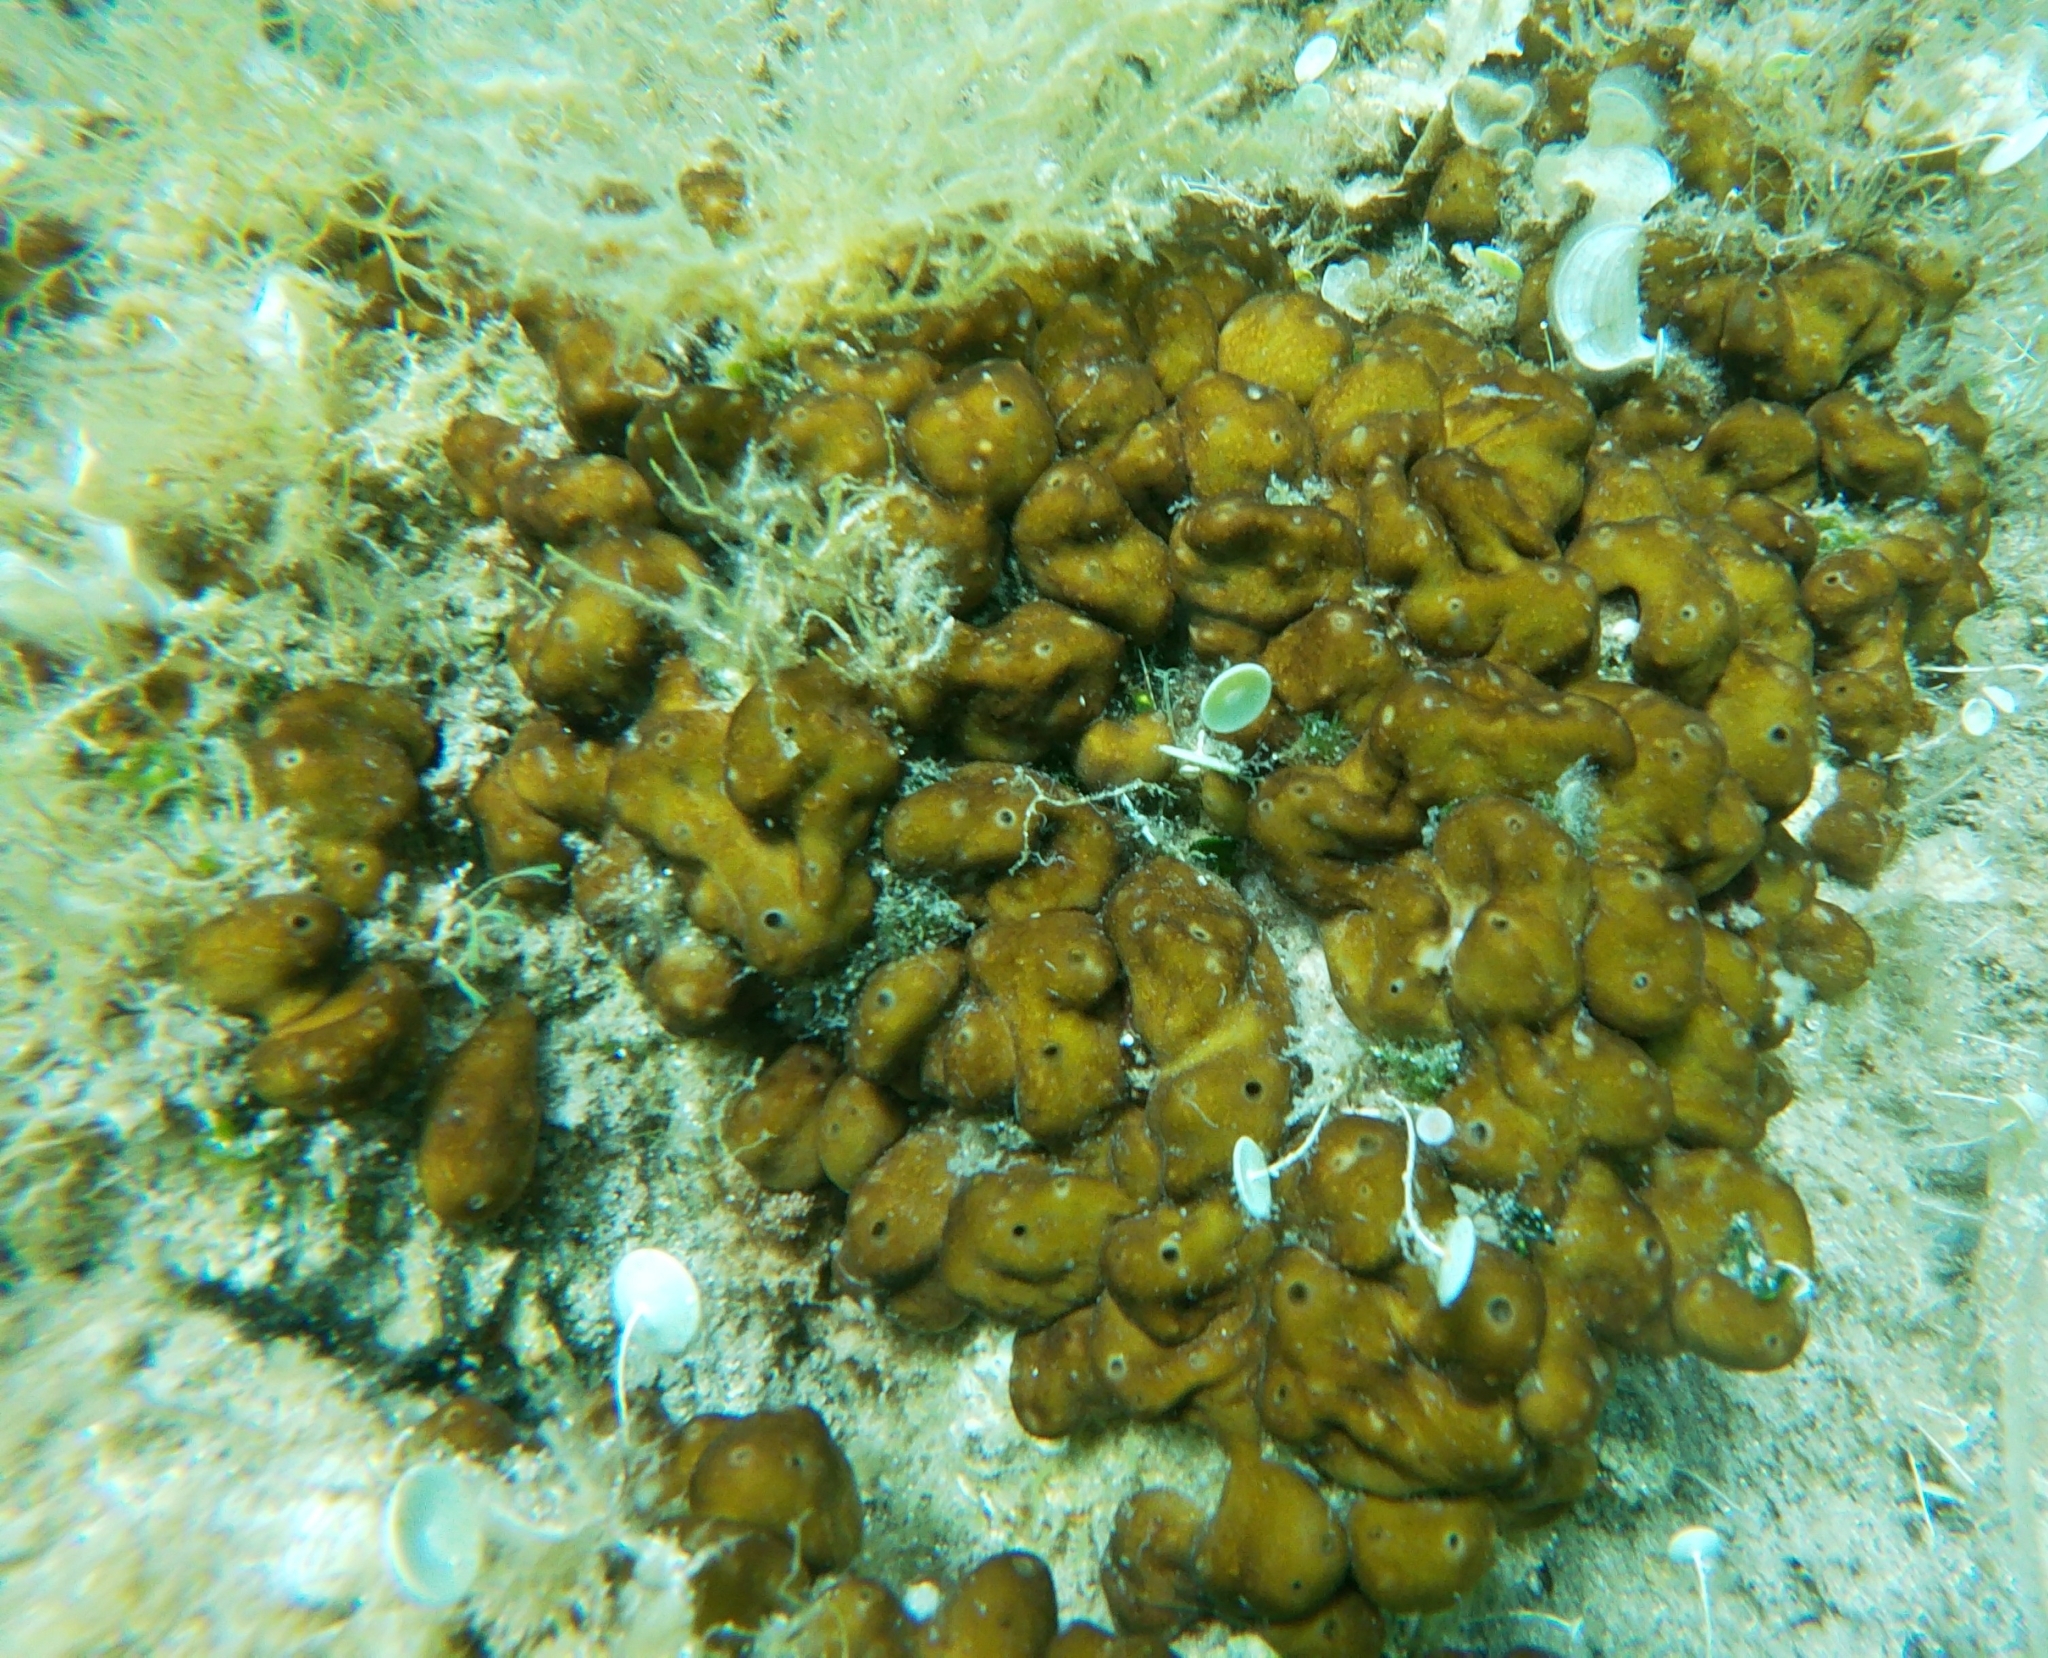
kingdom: Animalia
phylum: Porifera
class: Demospongiae
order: Chondrillida
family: Chondrillidae
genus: Chondrilla
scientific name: Chondrilla nucula
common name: Chicken liver sponge
